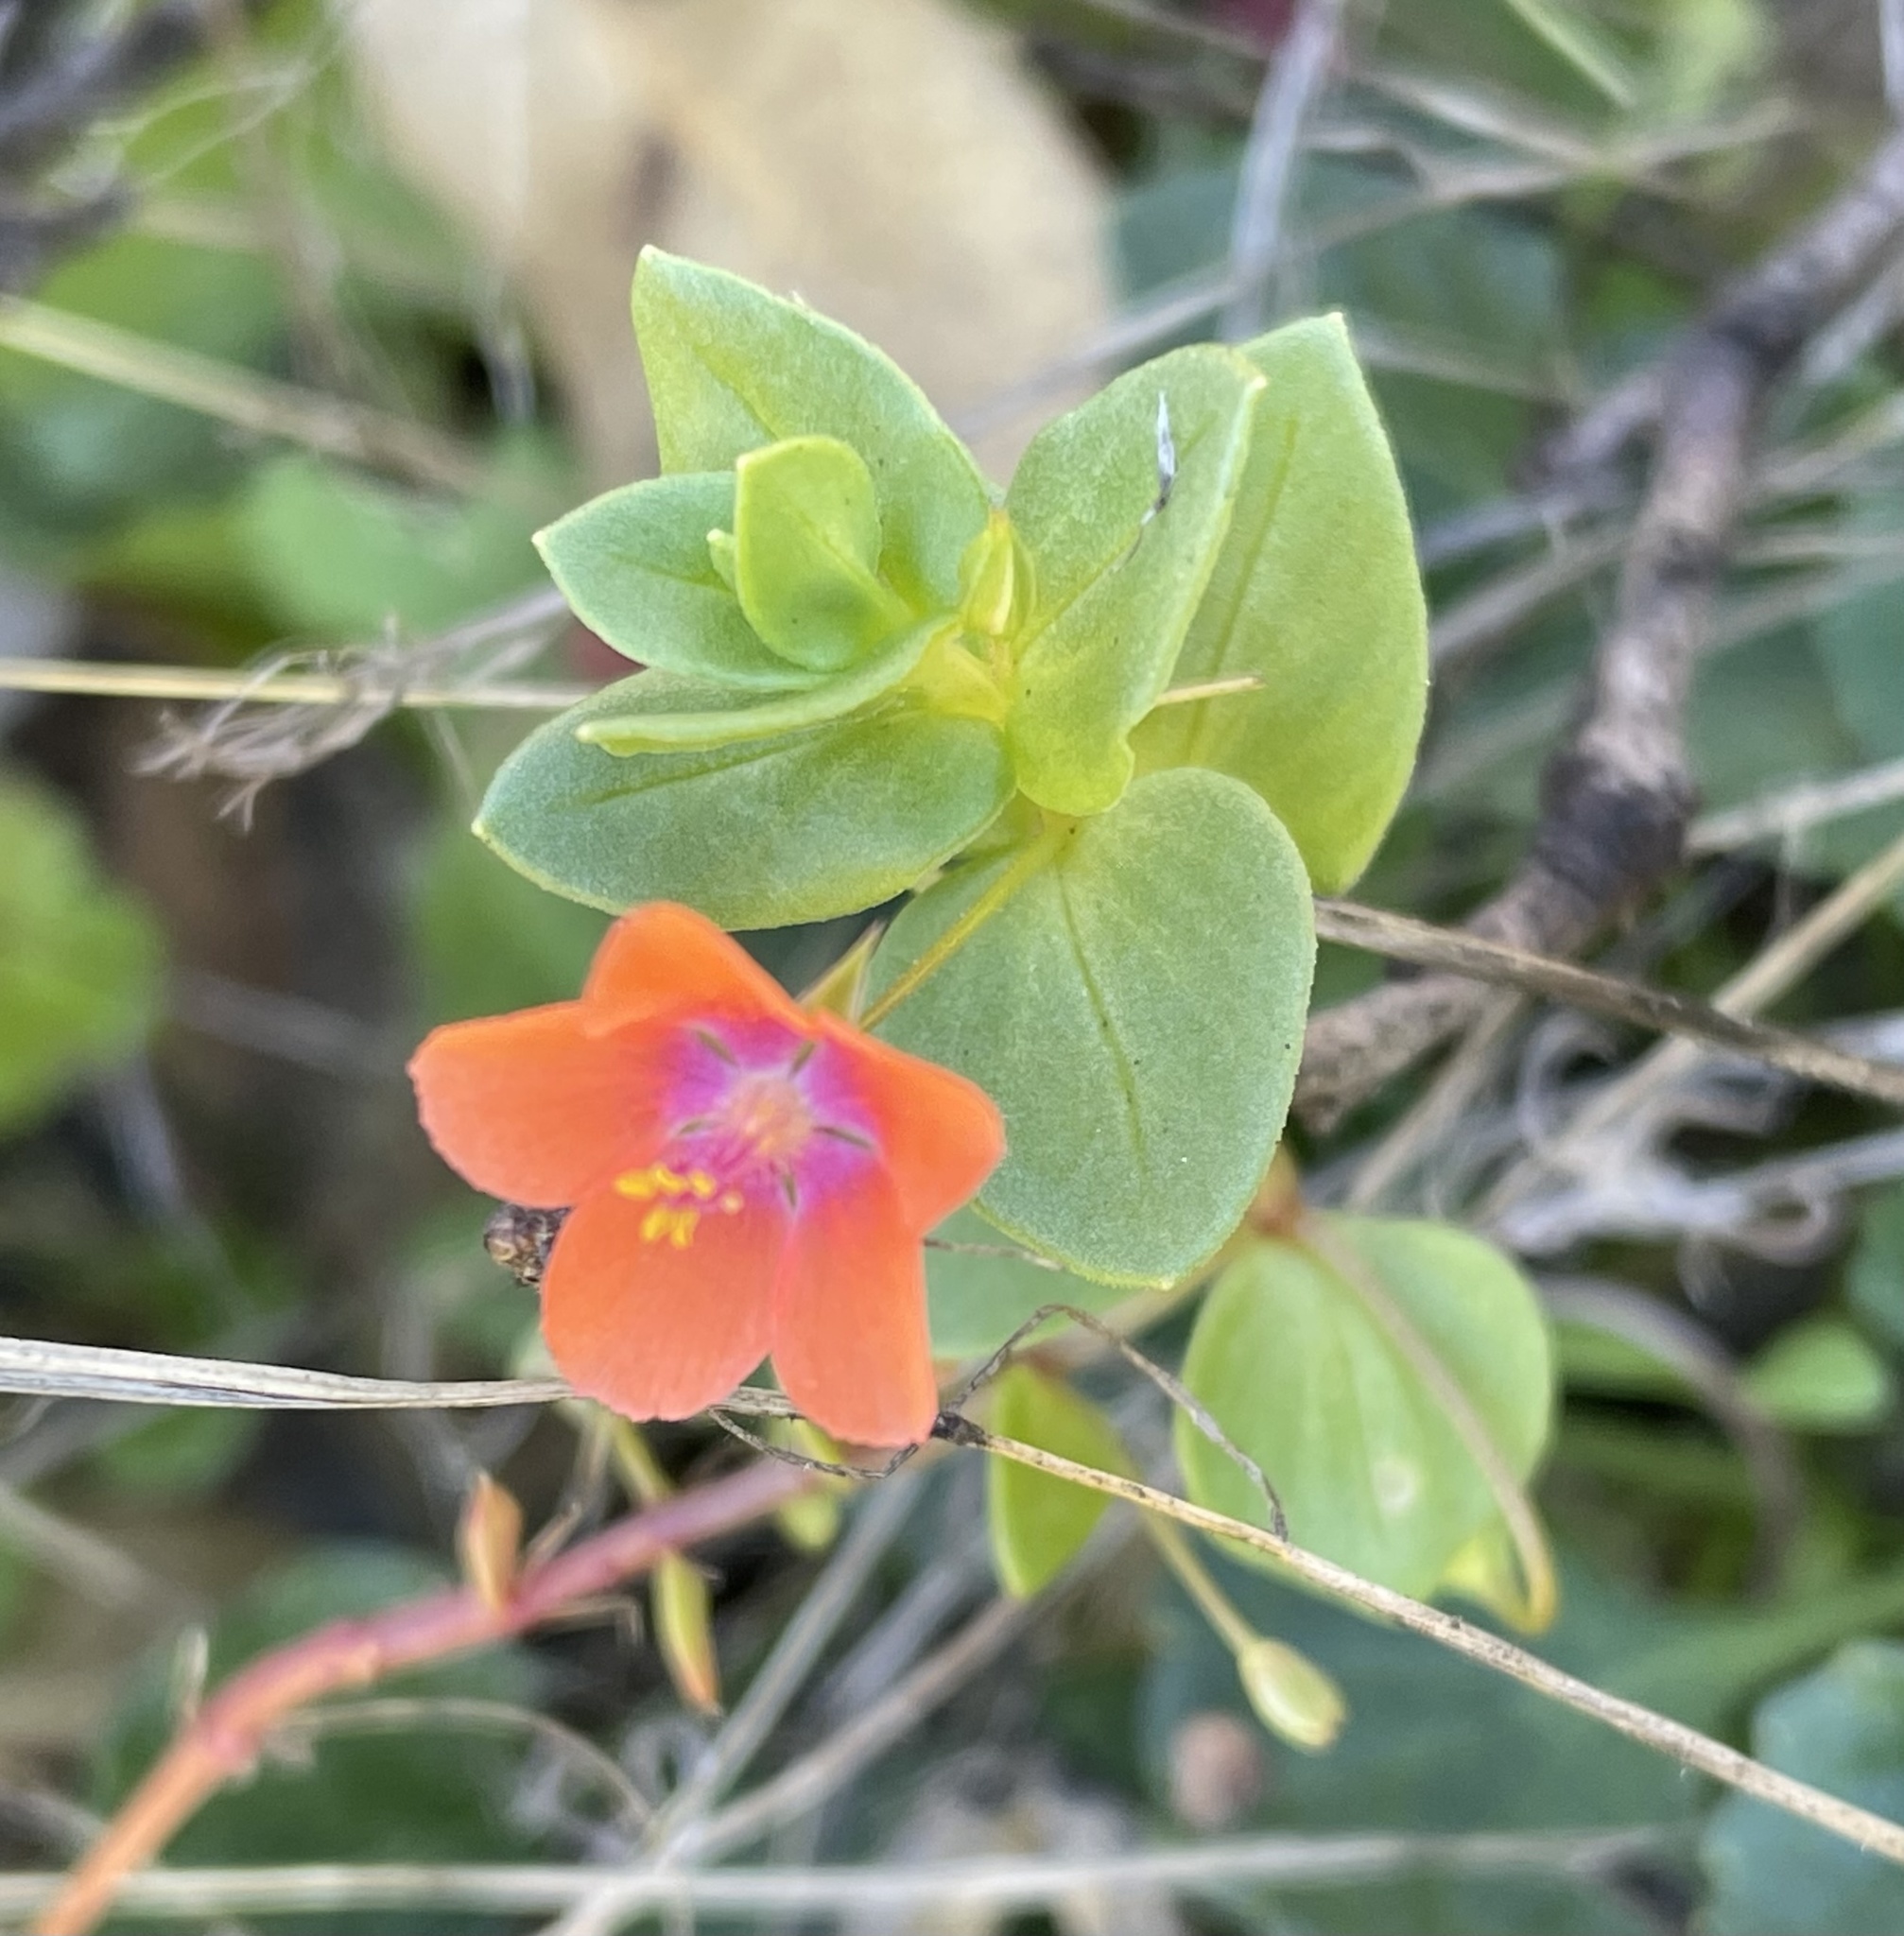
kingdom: Plantae
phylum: Tracheophyta
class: Magnoliopsida
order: Ericales
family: Primulaceae
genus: Lysimachia
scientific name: Lysimachia arvensis
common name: Scarlet pimpernel
